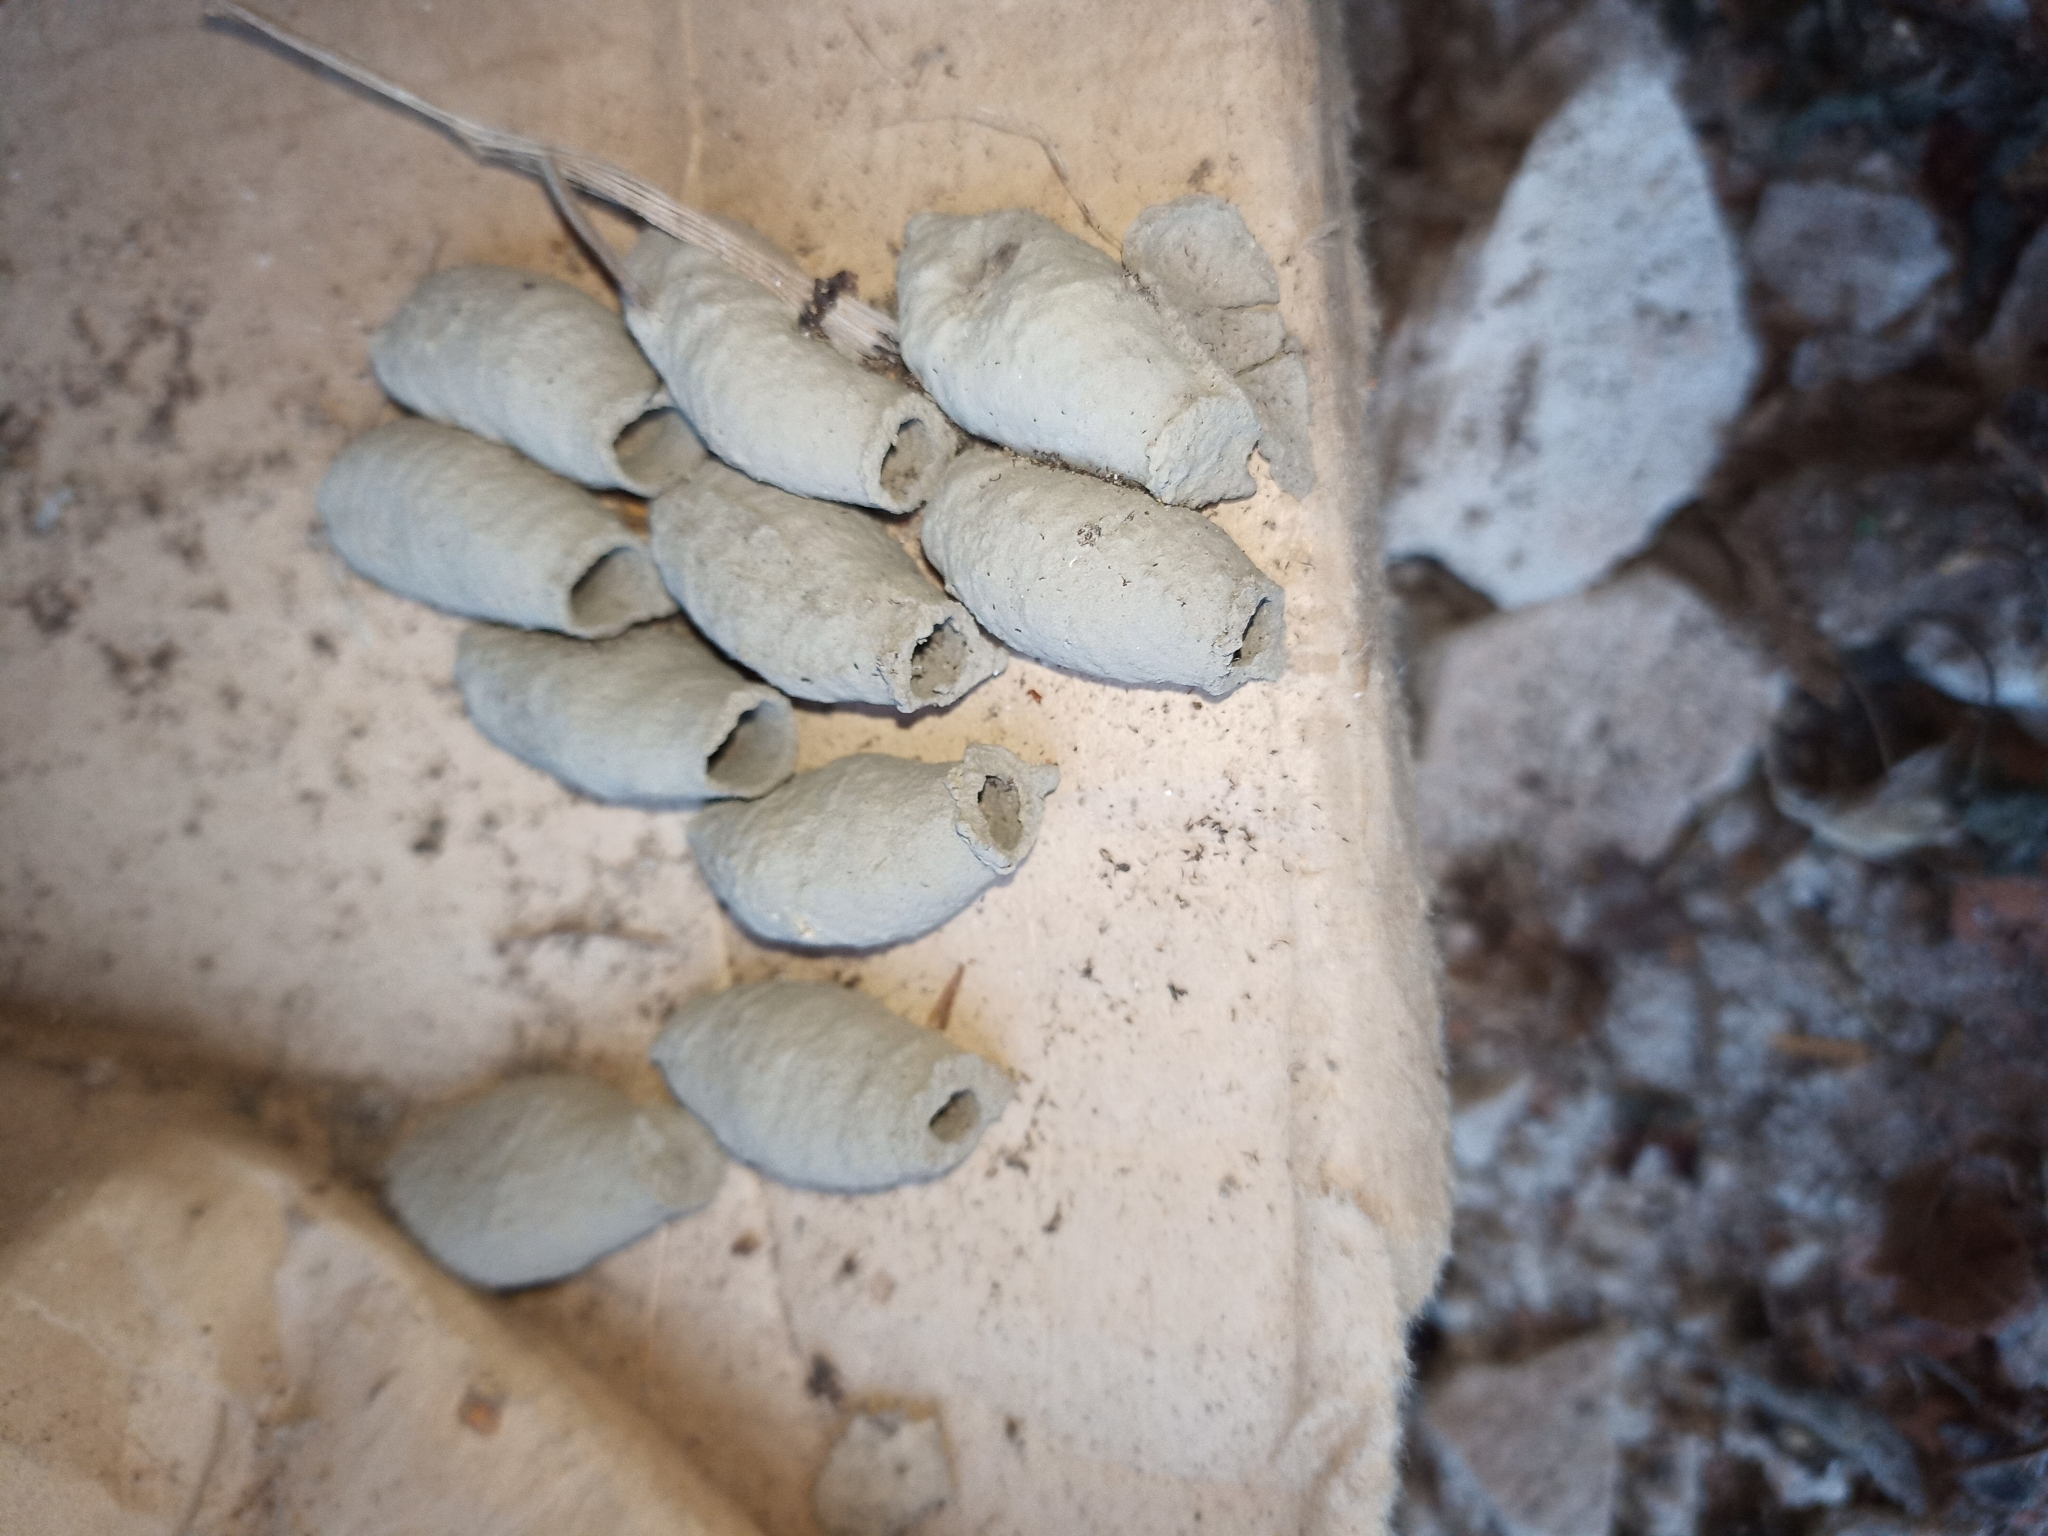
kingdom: Animalia
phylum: Arthropoda
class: Insecta
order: Hymenoptera
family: Sphecidae
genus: Sceliphron
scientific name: Sceliphron curvatum
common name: Pèlopèe
